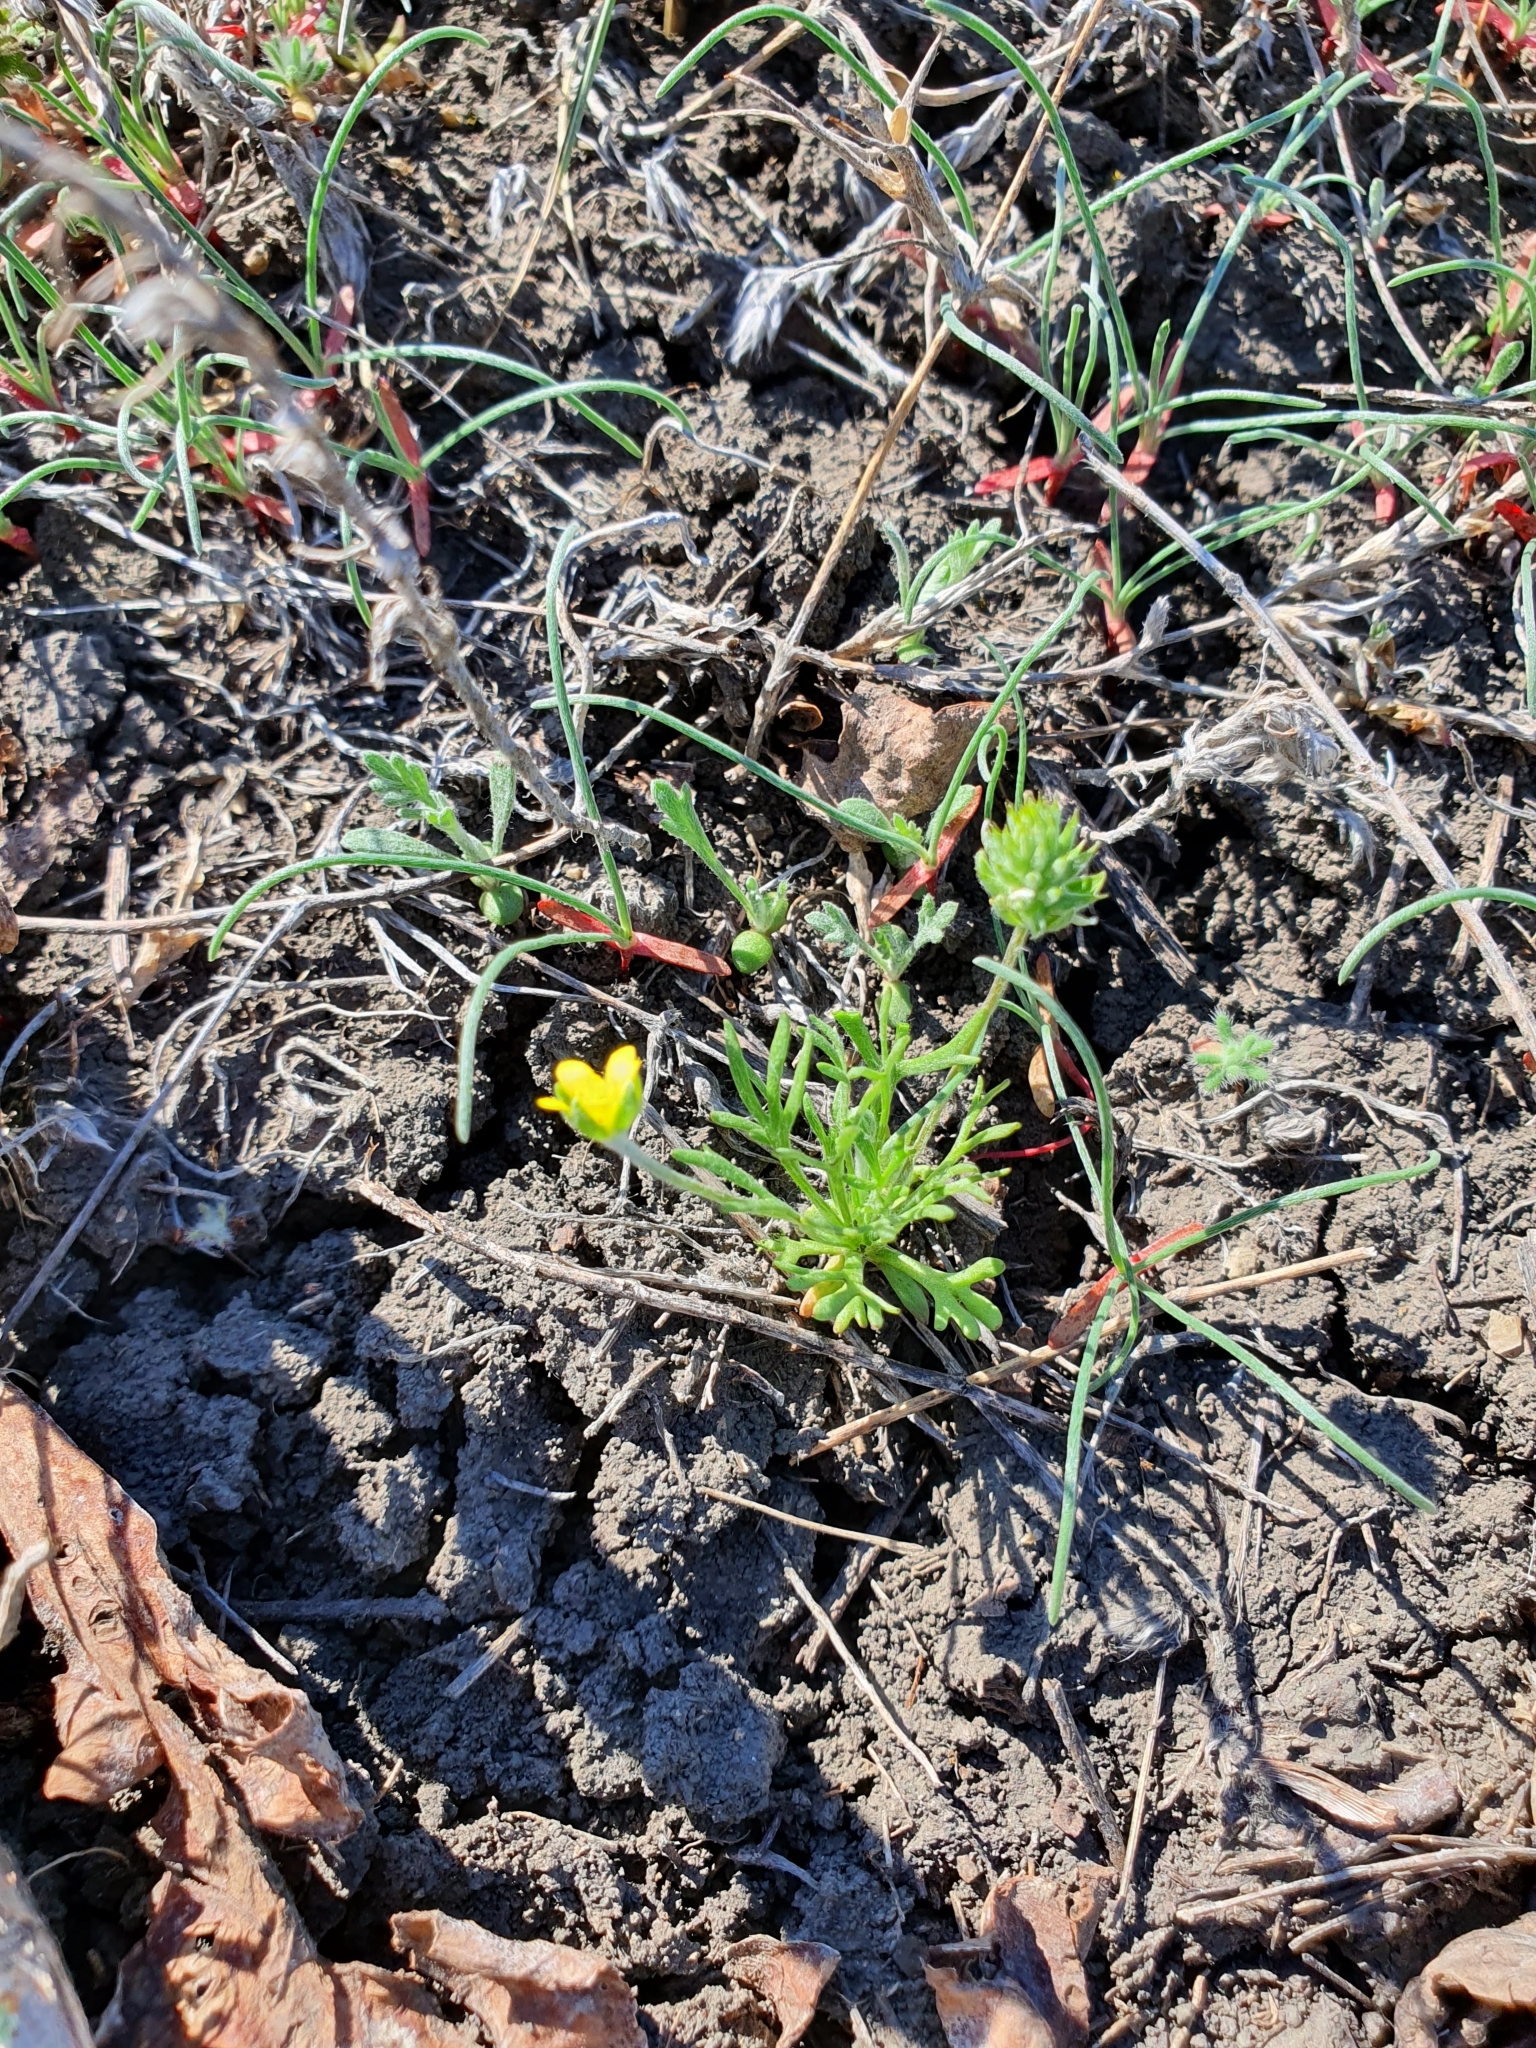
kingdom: Plantae
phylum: Tracheophyta
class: Magnoliopsida
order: Ranunculales
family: Ranunculaceae
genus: Ceratocephala
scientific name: Ceratocephala orthoceras
